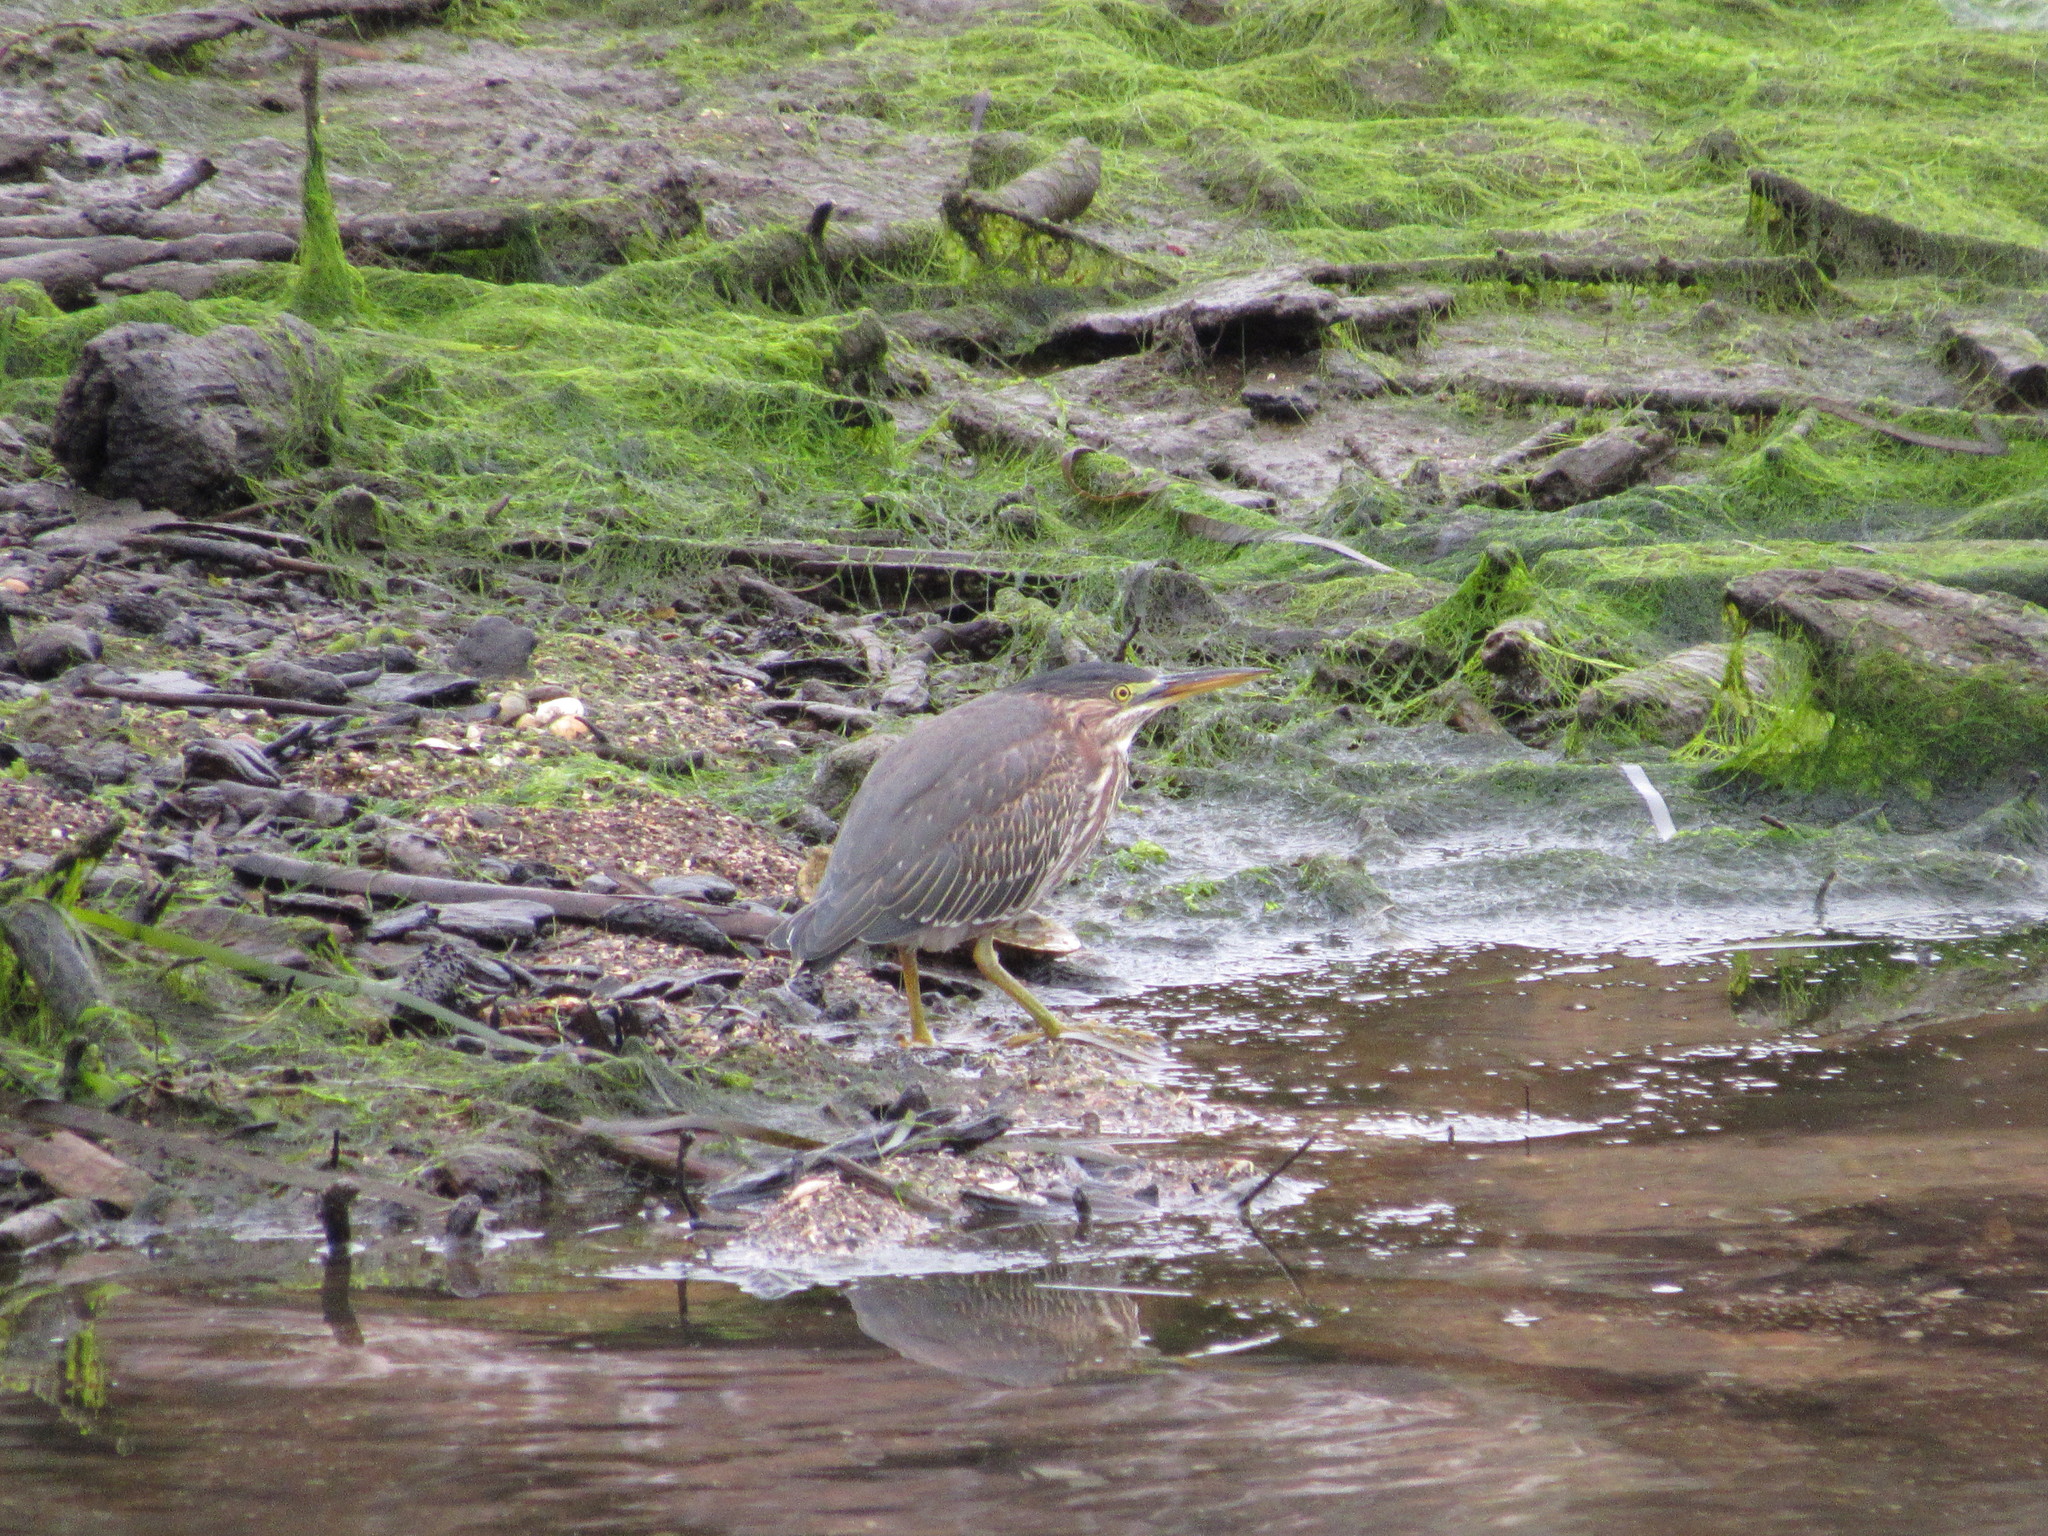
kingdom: Animalia
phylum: Chordata
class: Aves
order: Pelecaniformes
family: Ardeidae
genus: Butorides
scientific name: Butorides virescens
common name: Green heron
